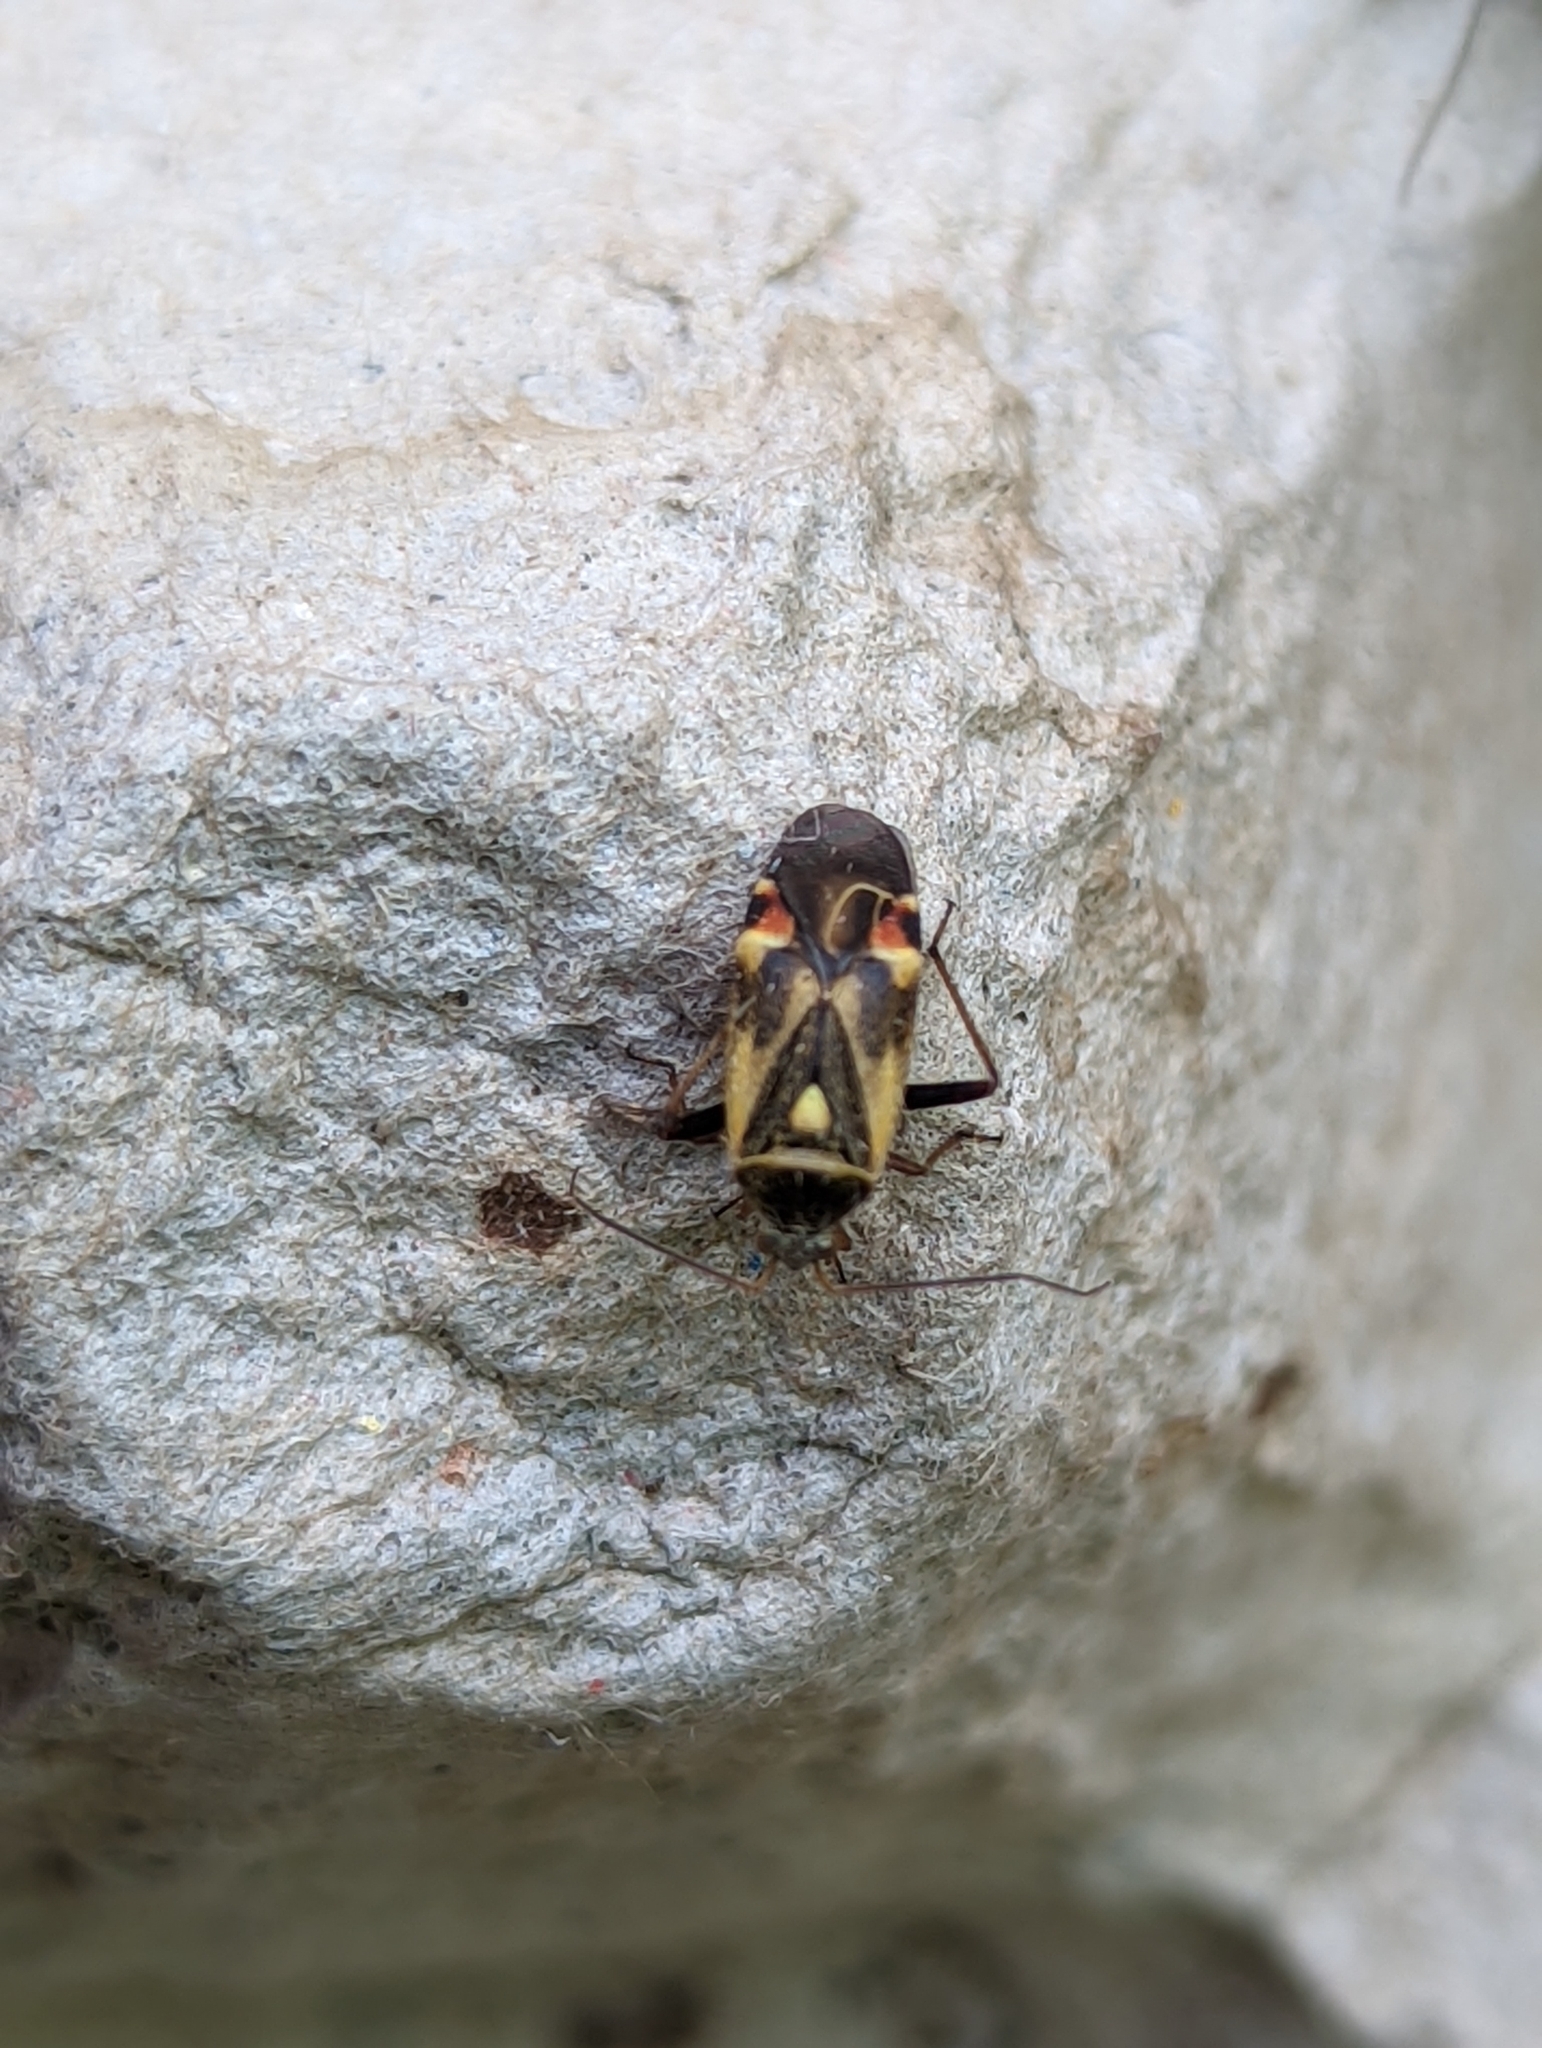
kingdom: Animalia
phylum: Arthropoda
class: Insecta
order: Hemiptera
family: Miridae
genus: Polymerus
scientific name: Polymerus unifasciatus
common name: Plant bug
